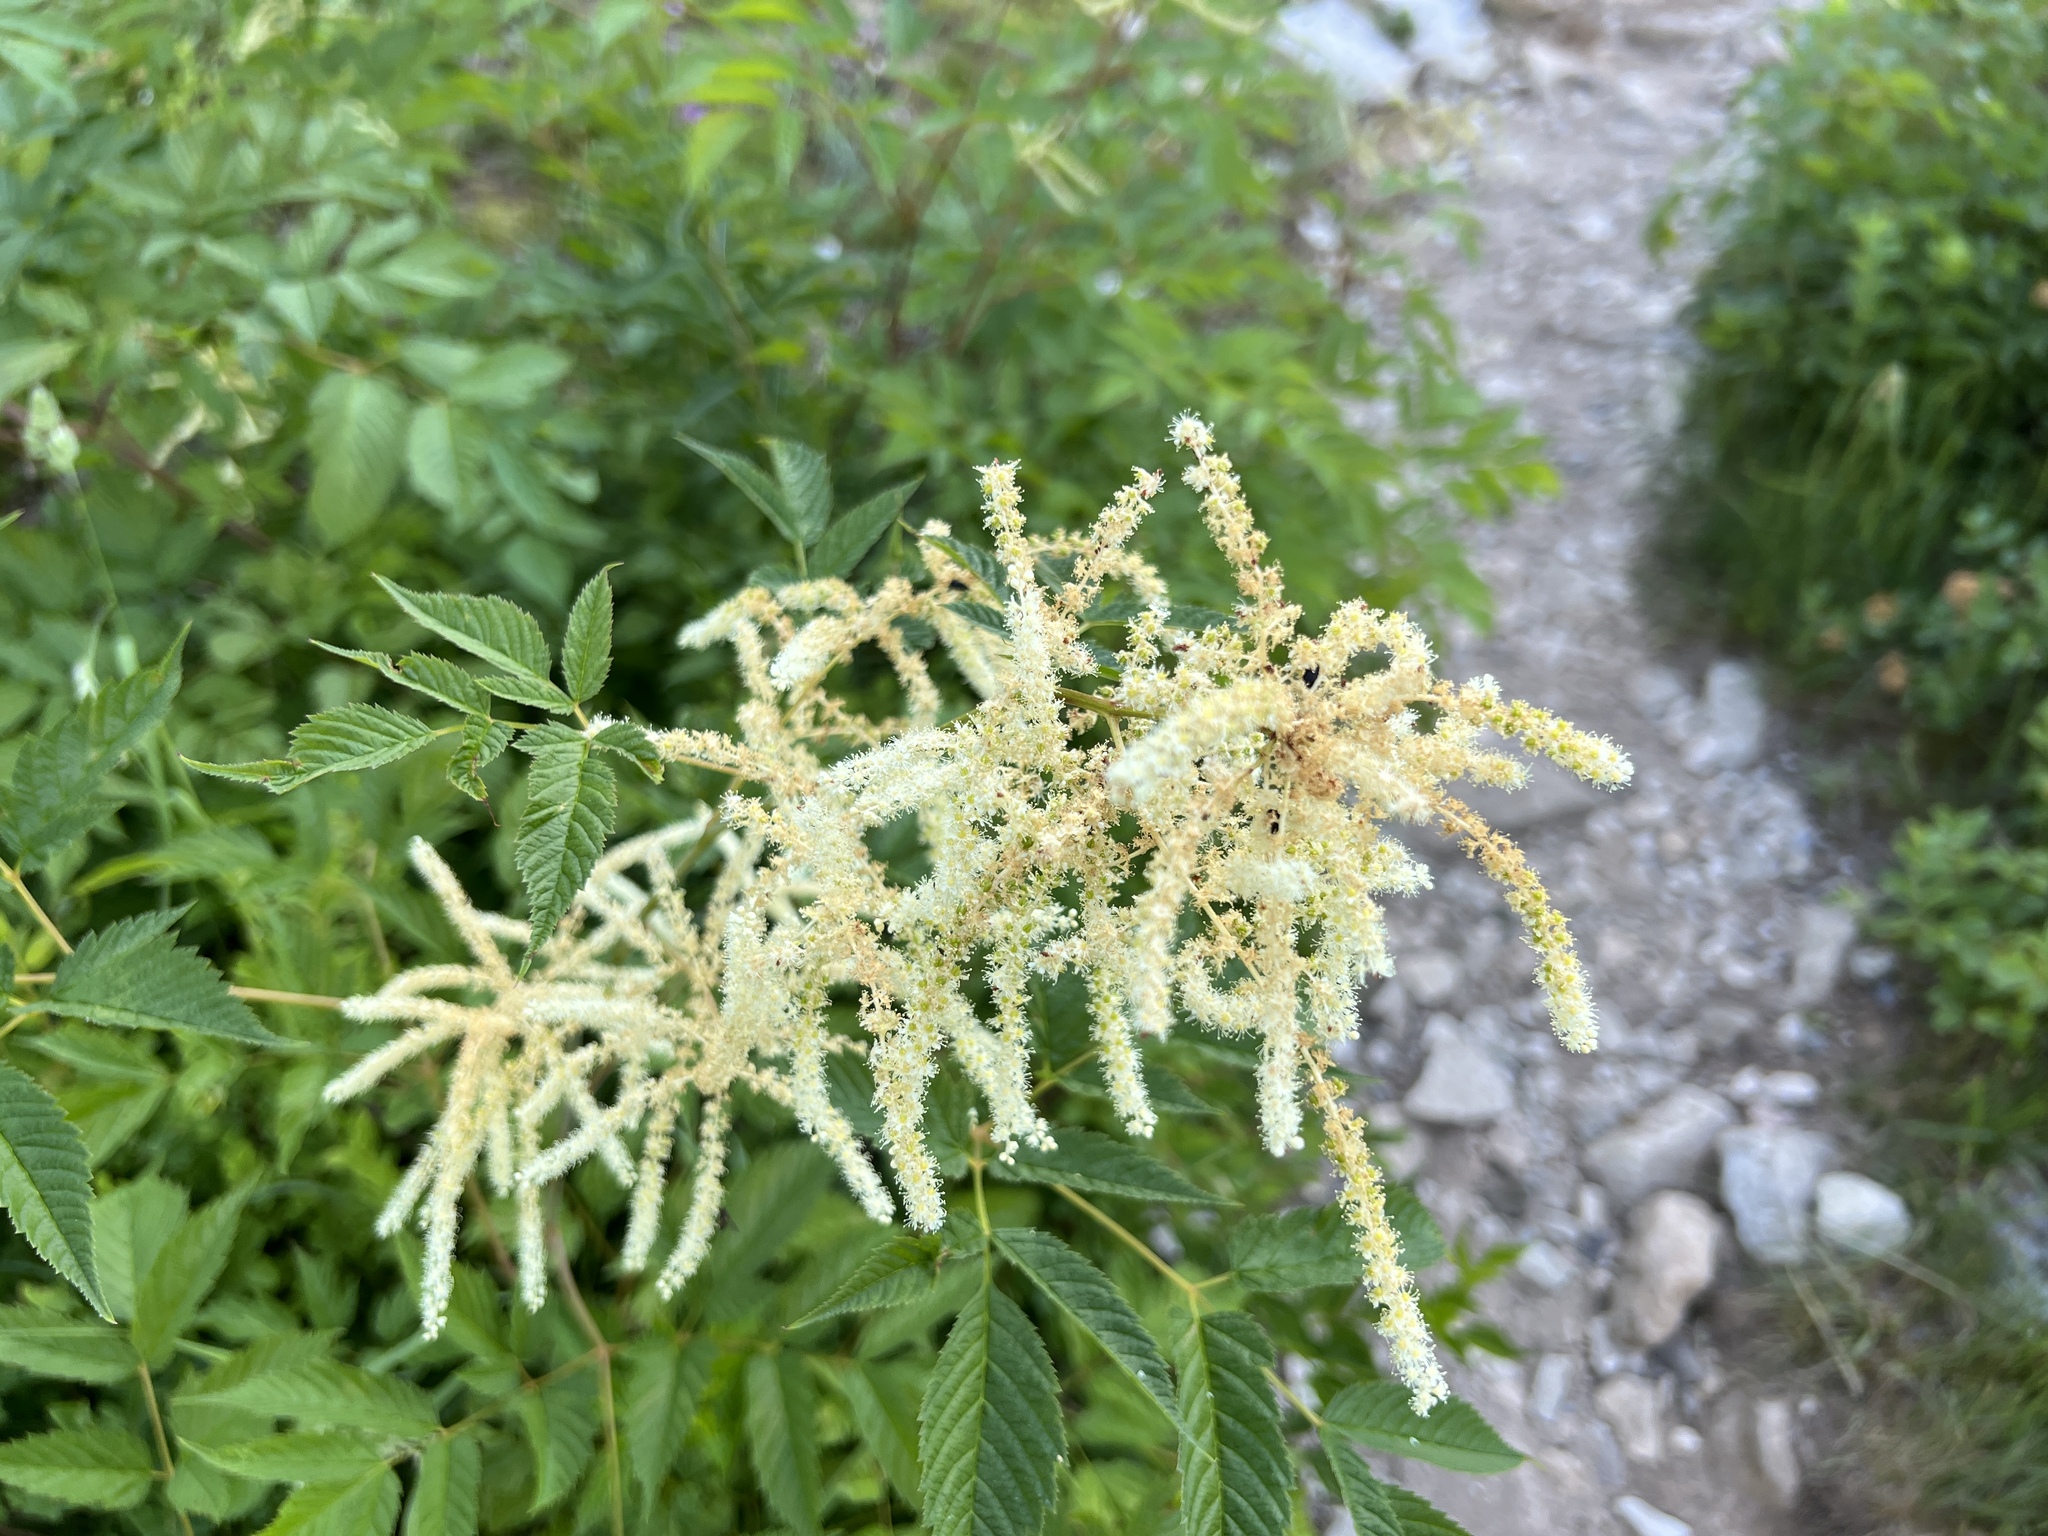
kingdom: Plantae
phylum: Tracheophyta
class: Magnoliopsida
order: Rosales
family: Rosaceae
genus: Aruncus
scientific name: Aruncus dioicus
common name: Buck's-beard
